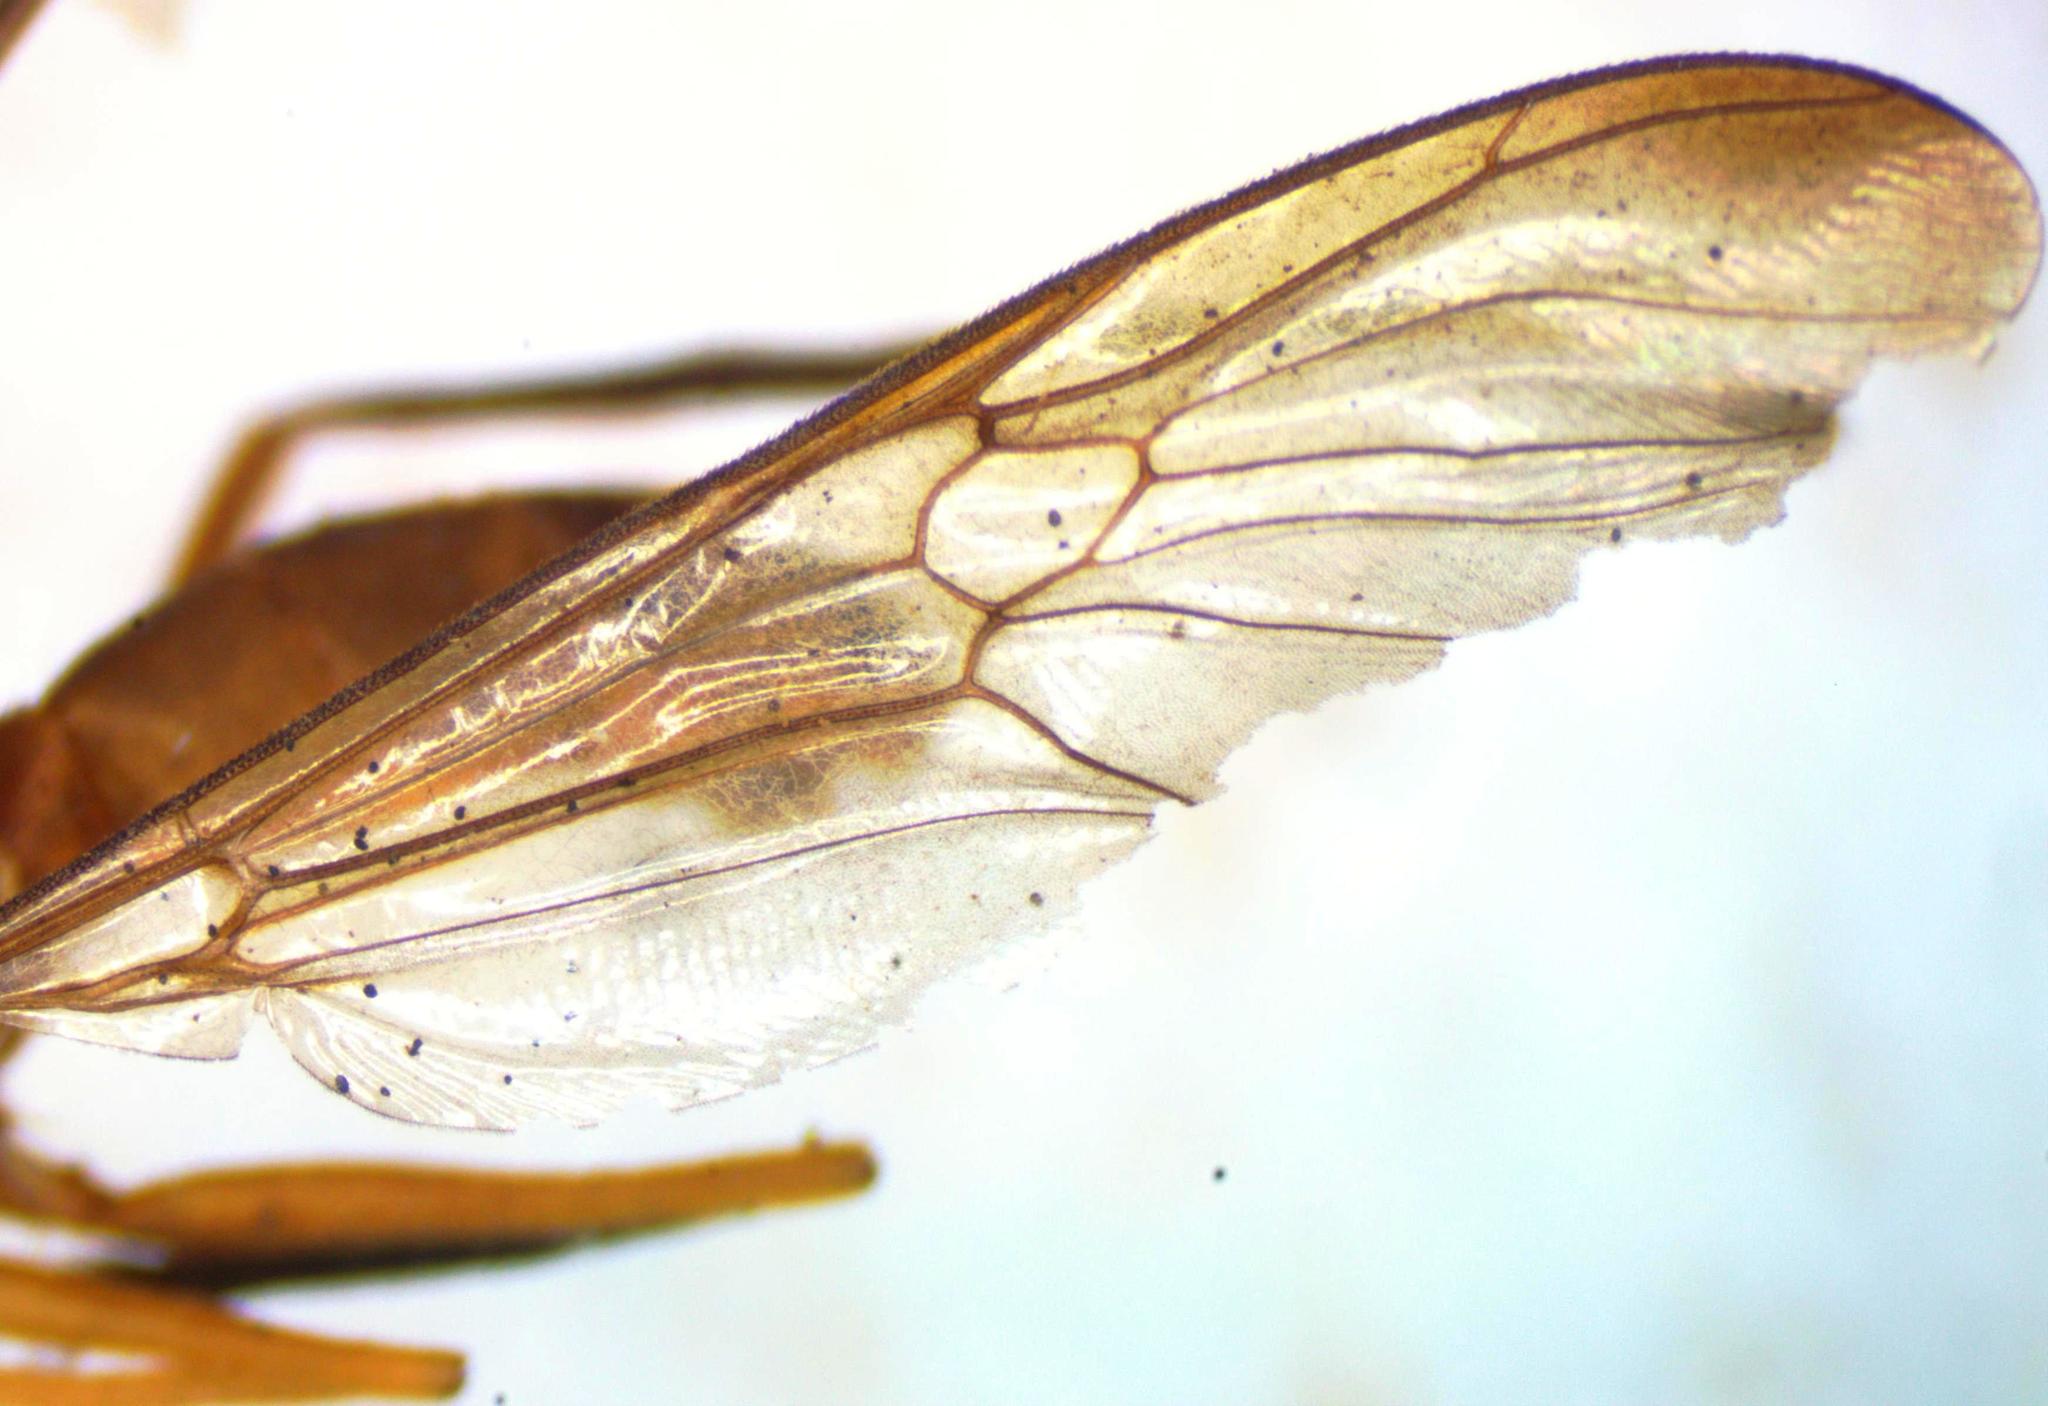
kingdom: Animalia
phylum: Arthropoda
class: Insecta
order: Diptera
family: Stratiomyidae
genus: Ptecticus
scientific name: Ptecticus nigrifrons
